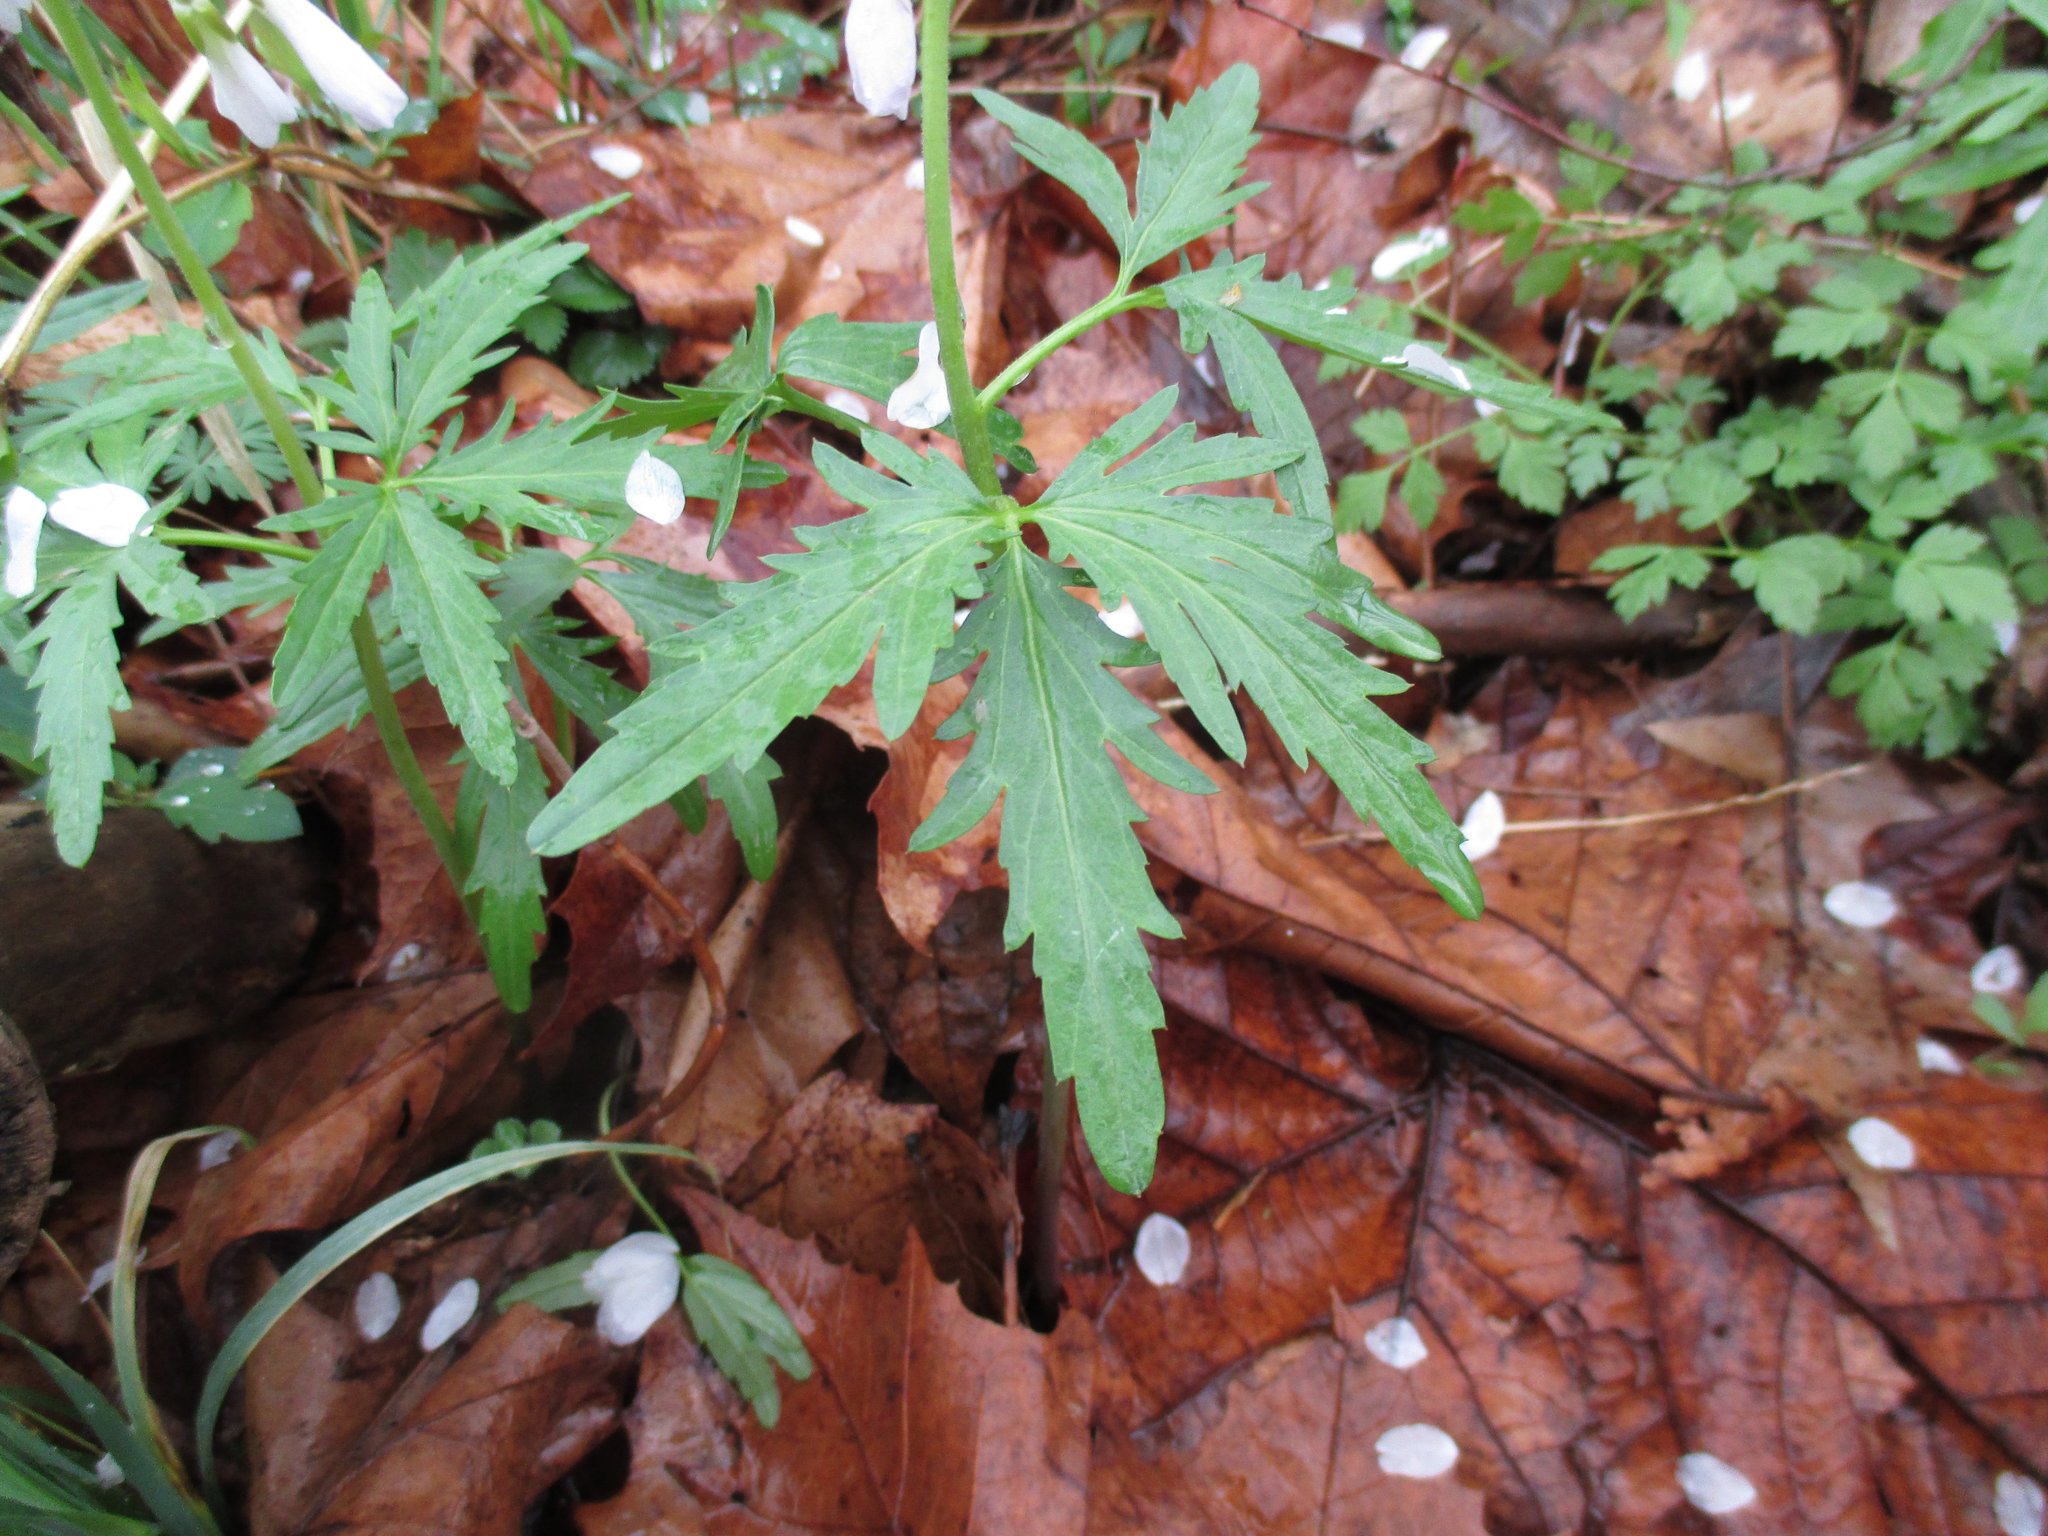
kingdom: Plantae
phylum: Tracheophyta
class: Magnoliopsida
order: Brassicales
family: Brassicaceae
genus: Cardamine
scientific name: Cardamine concatenata
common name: Cut-leaf toothcup
